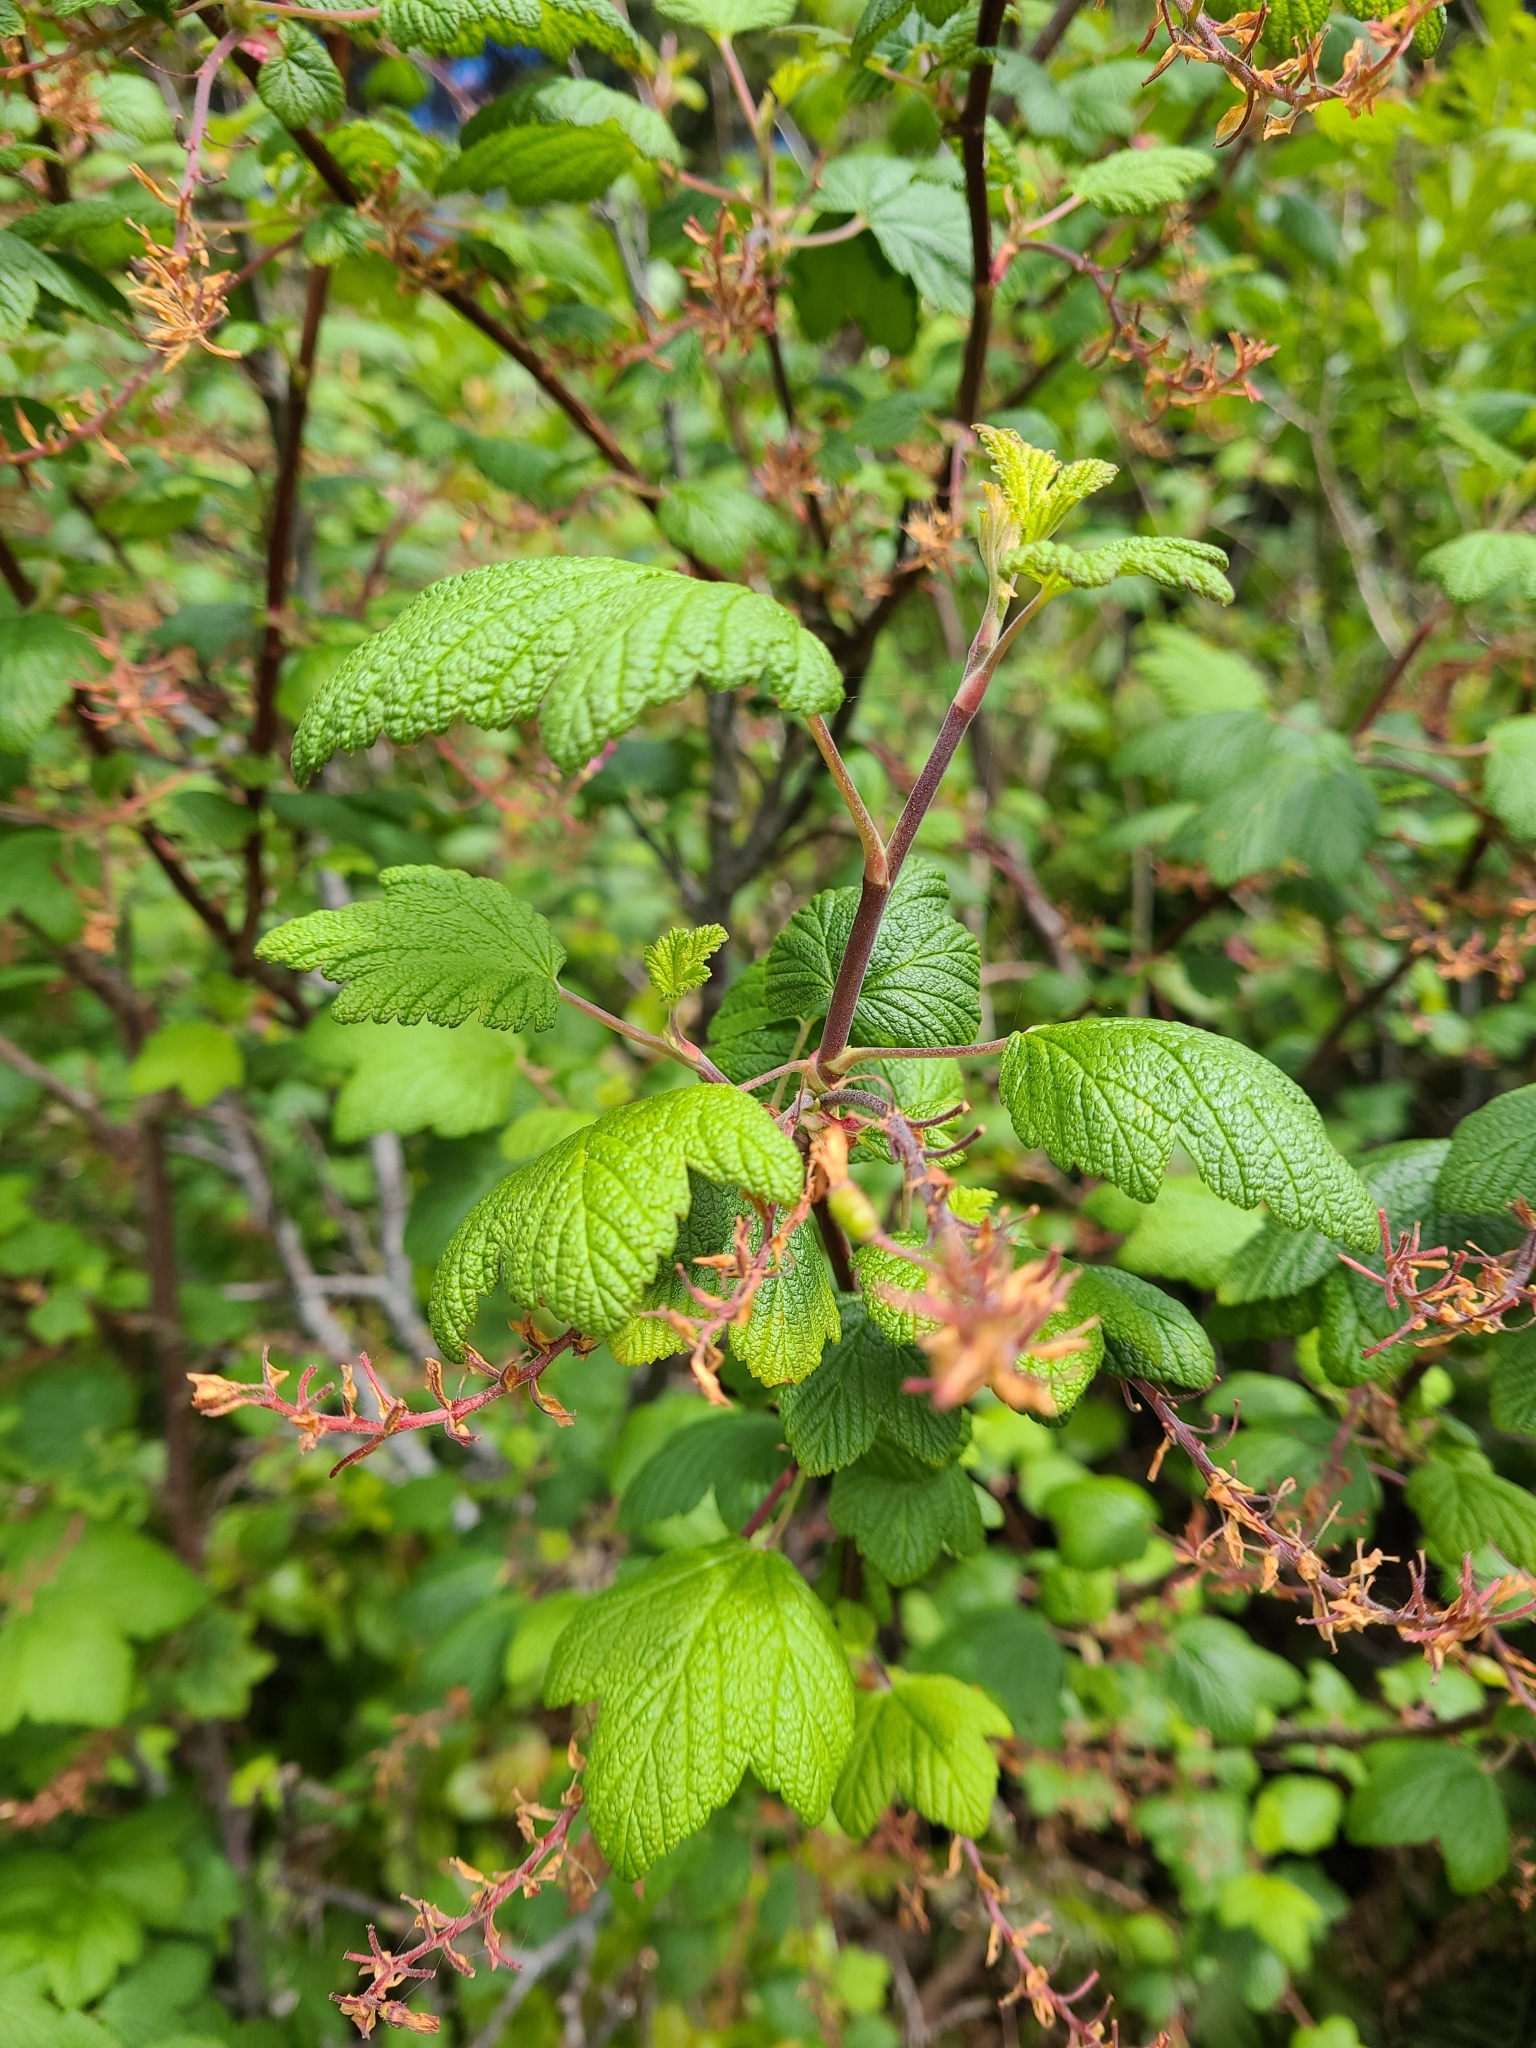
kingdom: Plantae
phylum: Tracheophyta
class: Magnoliopsida
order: Saxifragales
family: Grossulariaceae
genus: Ribes
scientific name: Ribes sanguineum
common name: Flowering currant
